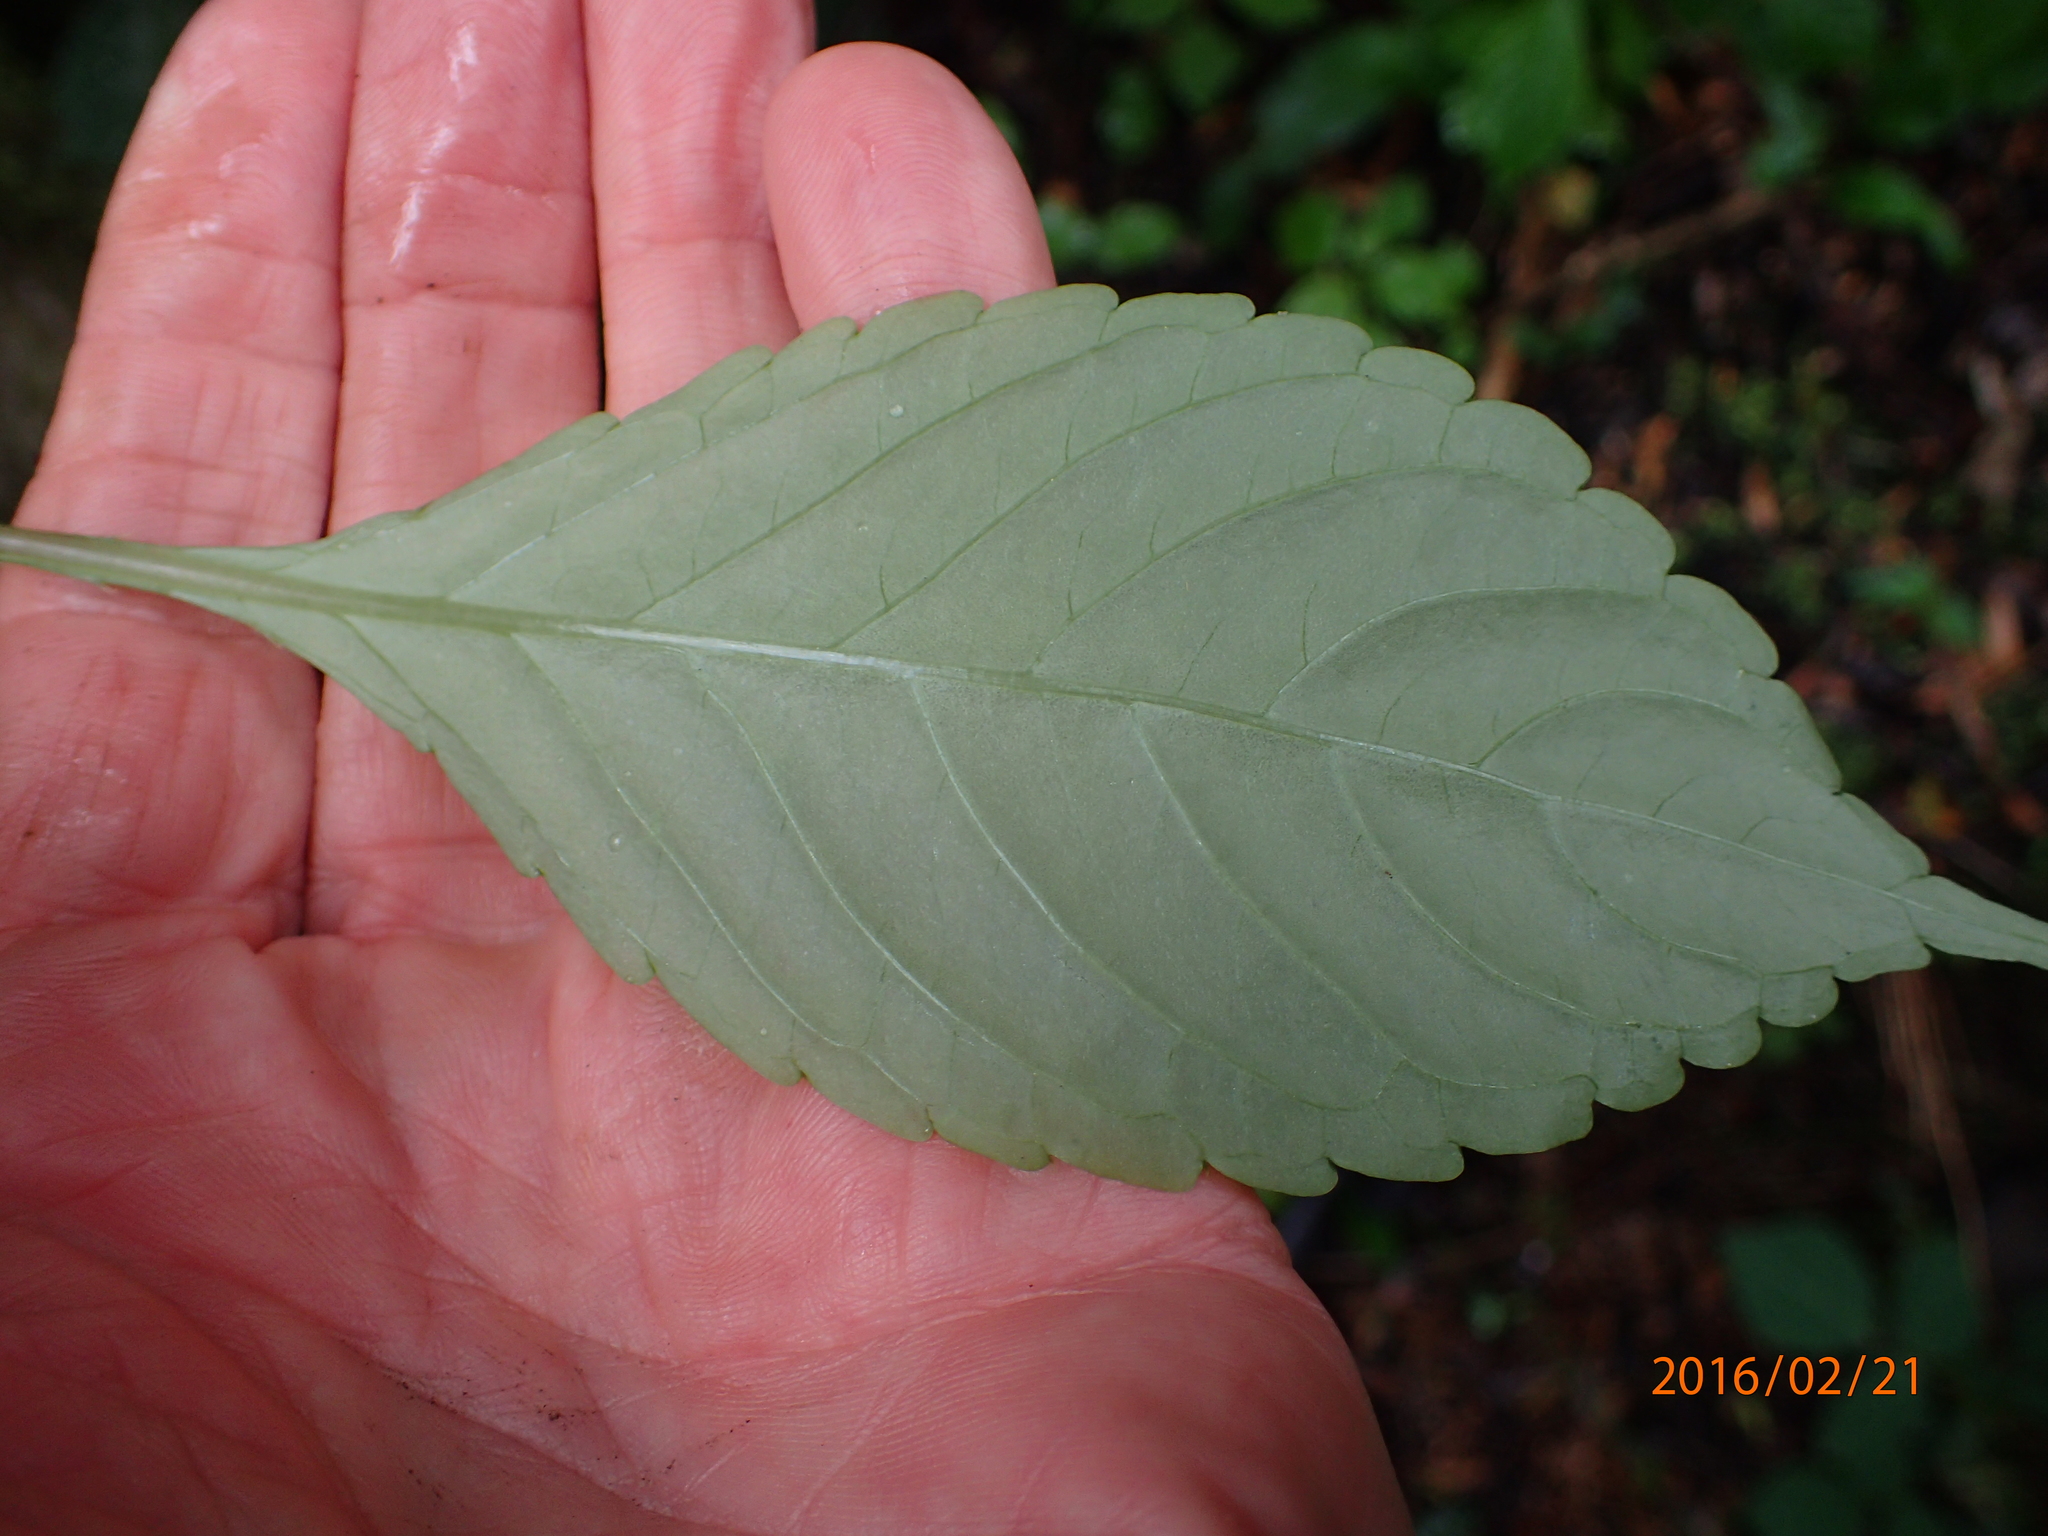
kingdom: Plantae
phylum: Tracheophyta
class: Magnoliopsida
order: Ericales
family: Balsaminaceae
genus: Impatiens
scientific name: Impatiens hochstetteri
